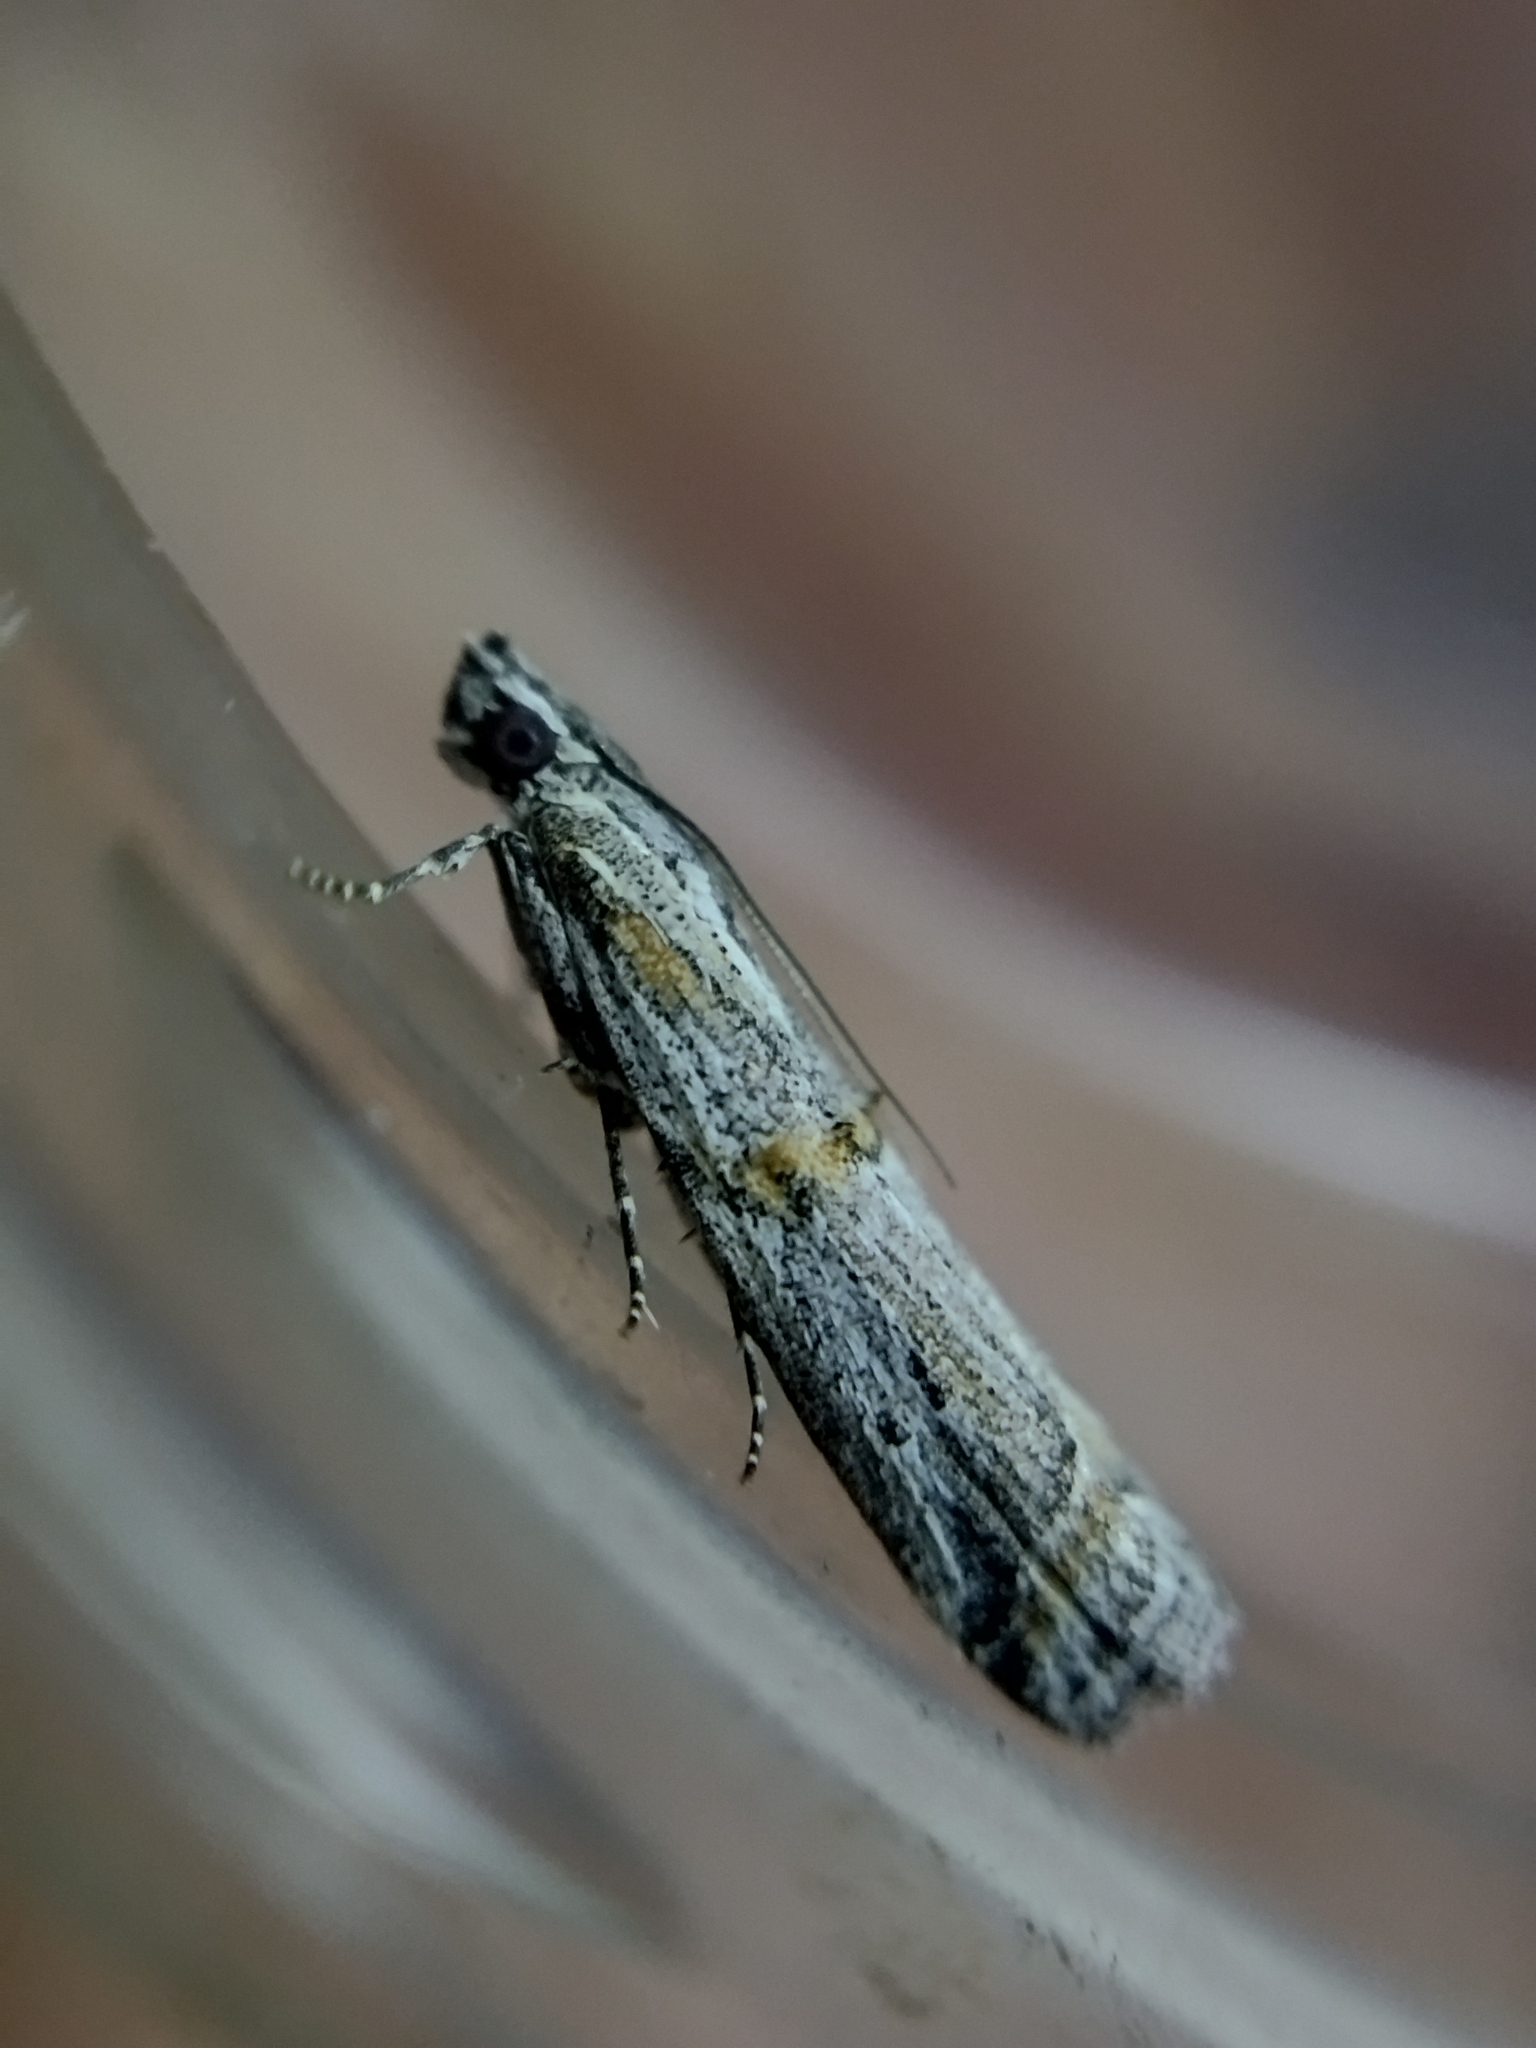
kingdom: Animalia
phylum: Arthropoda
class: Insecta
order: Lepidoptera
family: Pyralidae
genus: Psorosa
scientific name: Psorosa strictella
